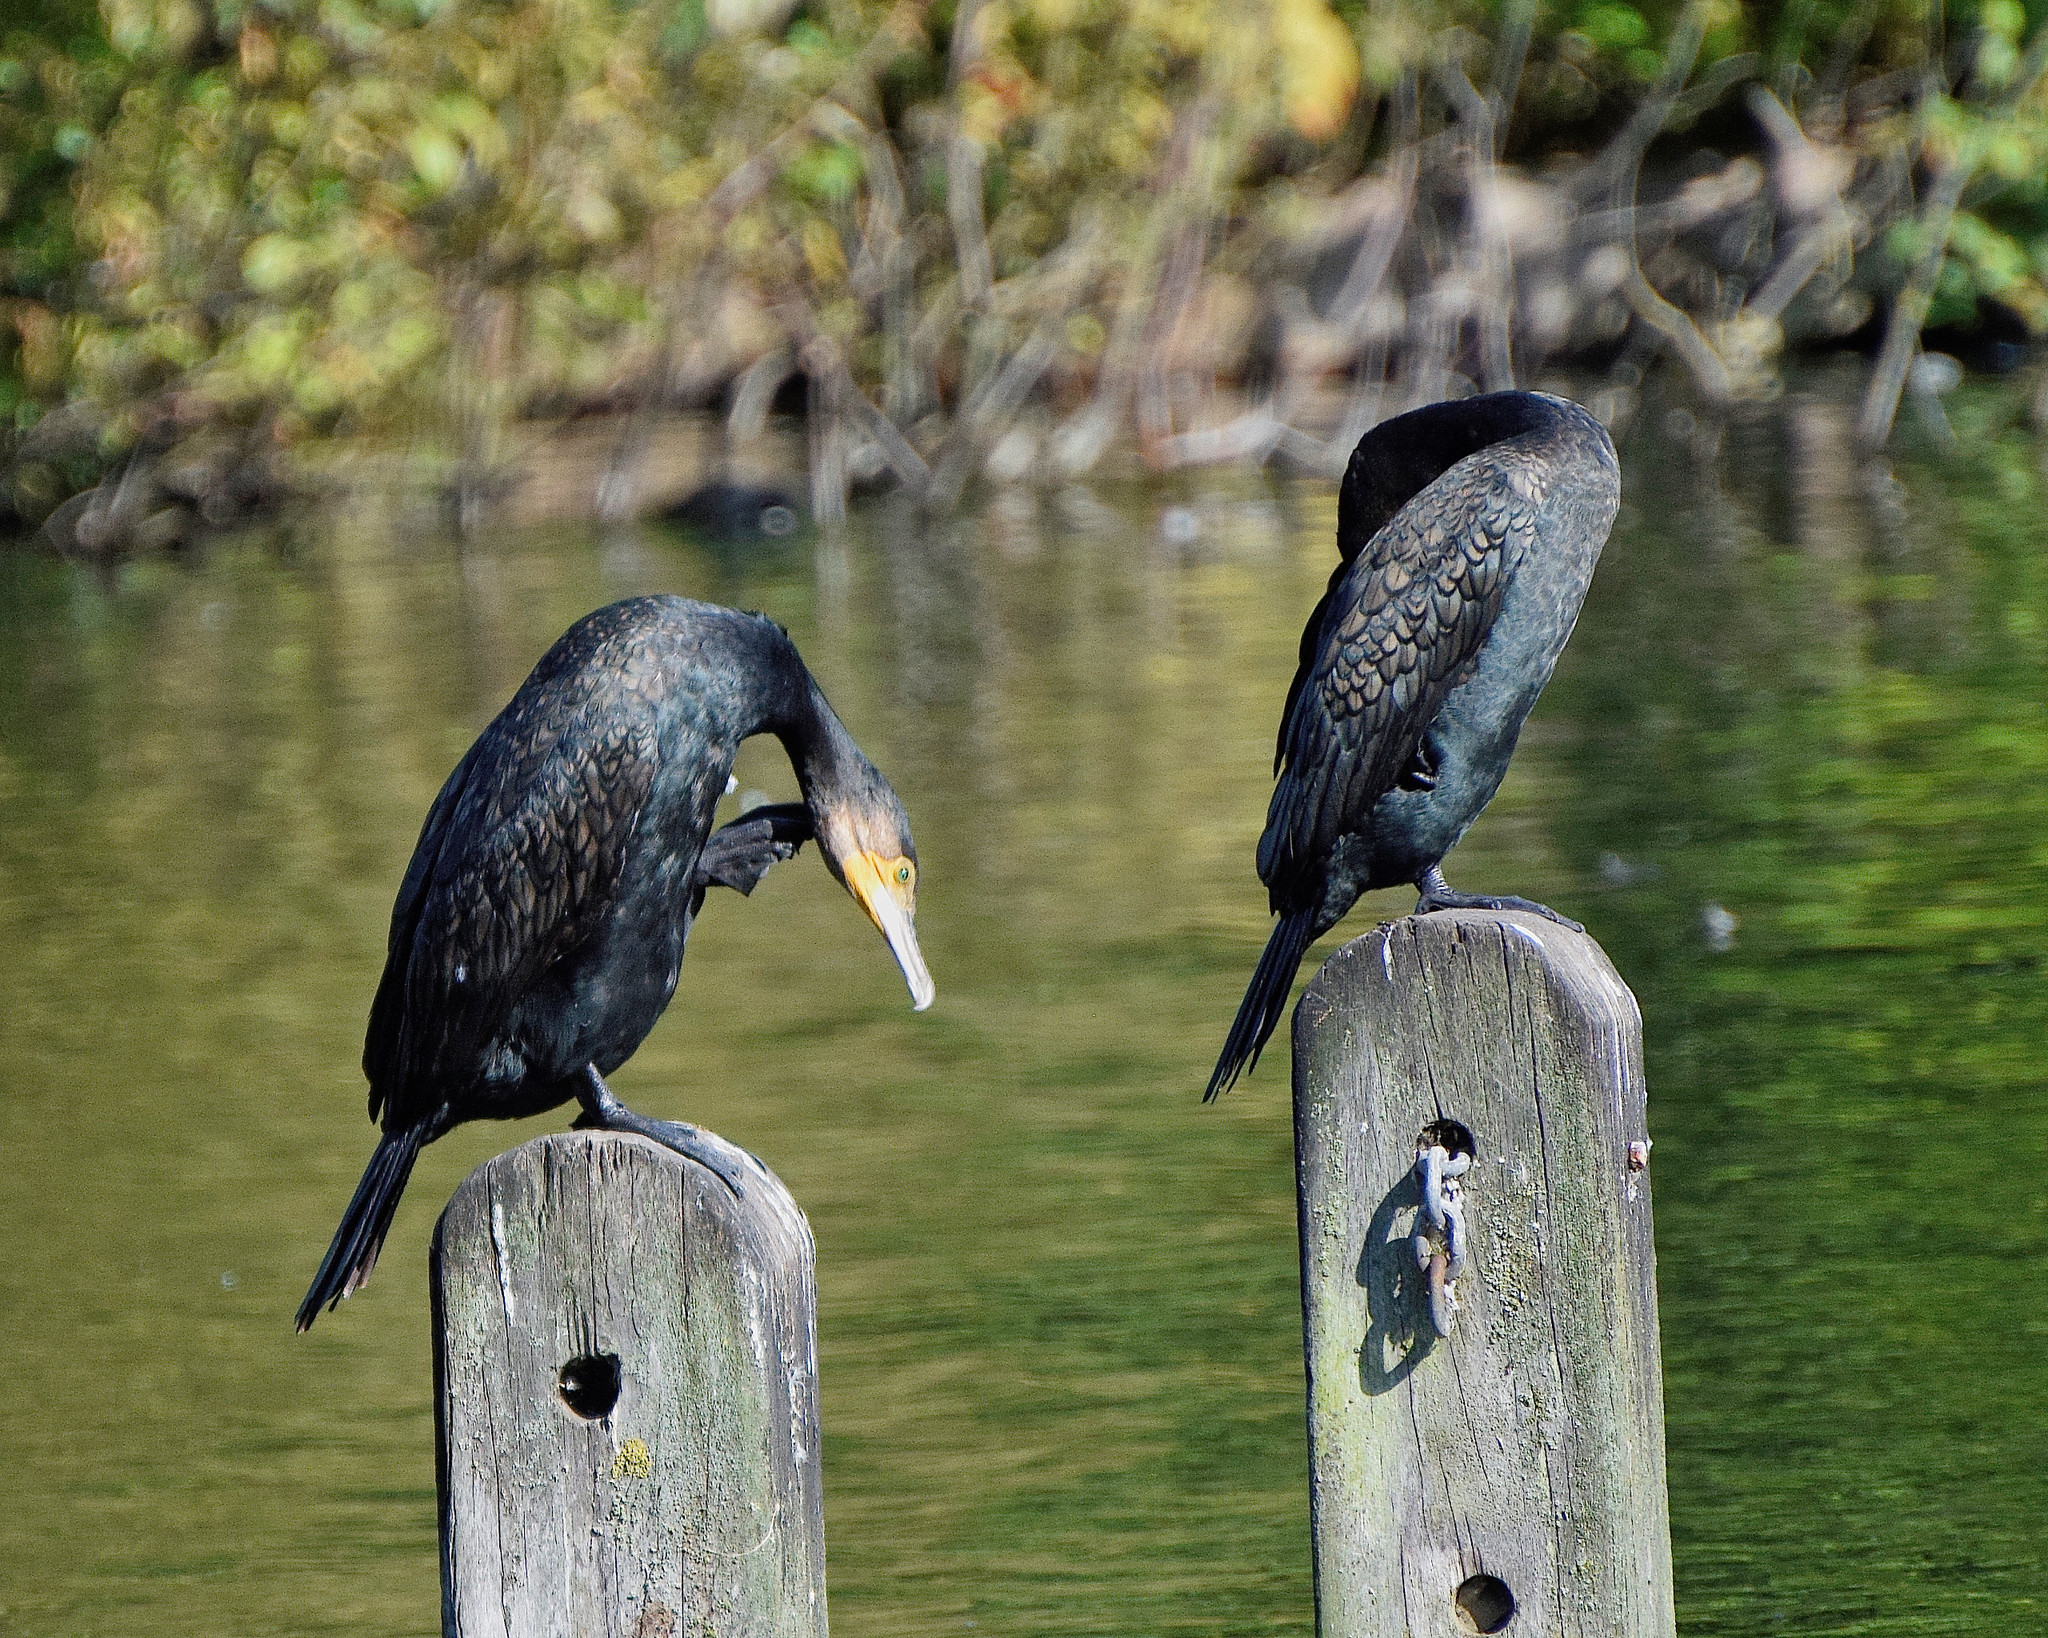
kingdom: Animalia
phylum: Chordata
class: Aves
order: Suliformes
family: Phalacrocoracidae
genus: Phalacrocorax
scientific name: Phalacrocorax carbo
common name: Great cormorant
